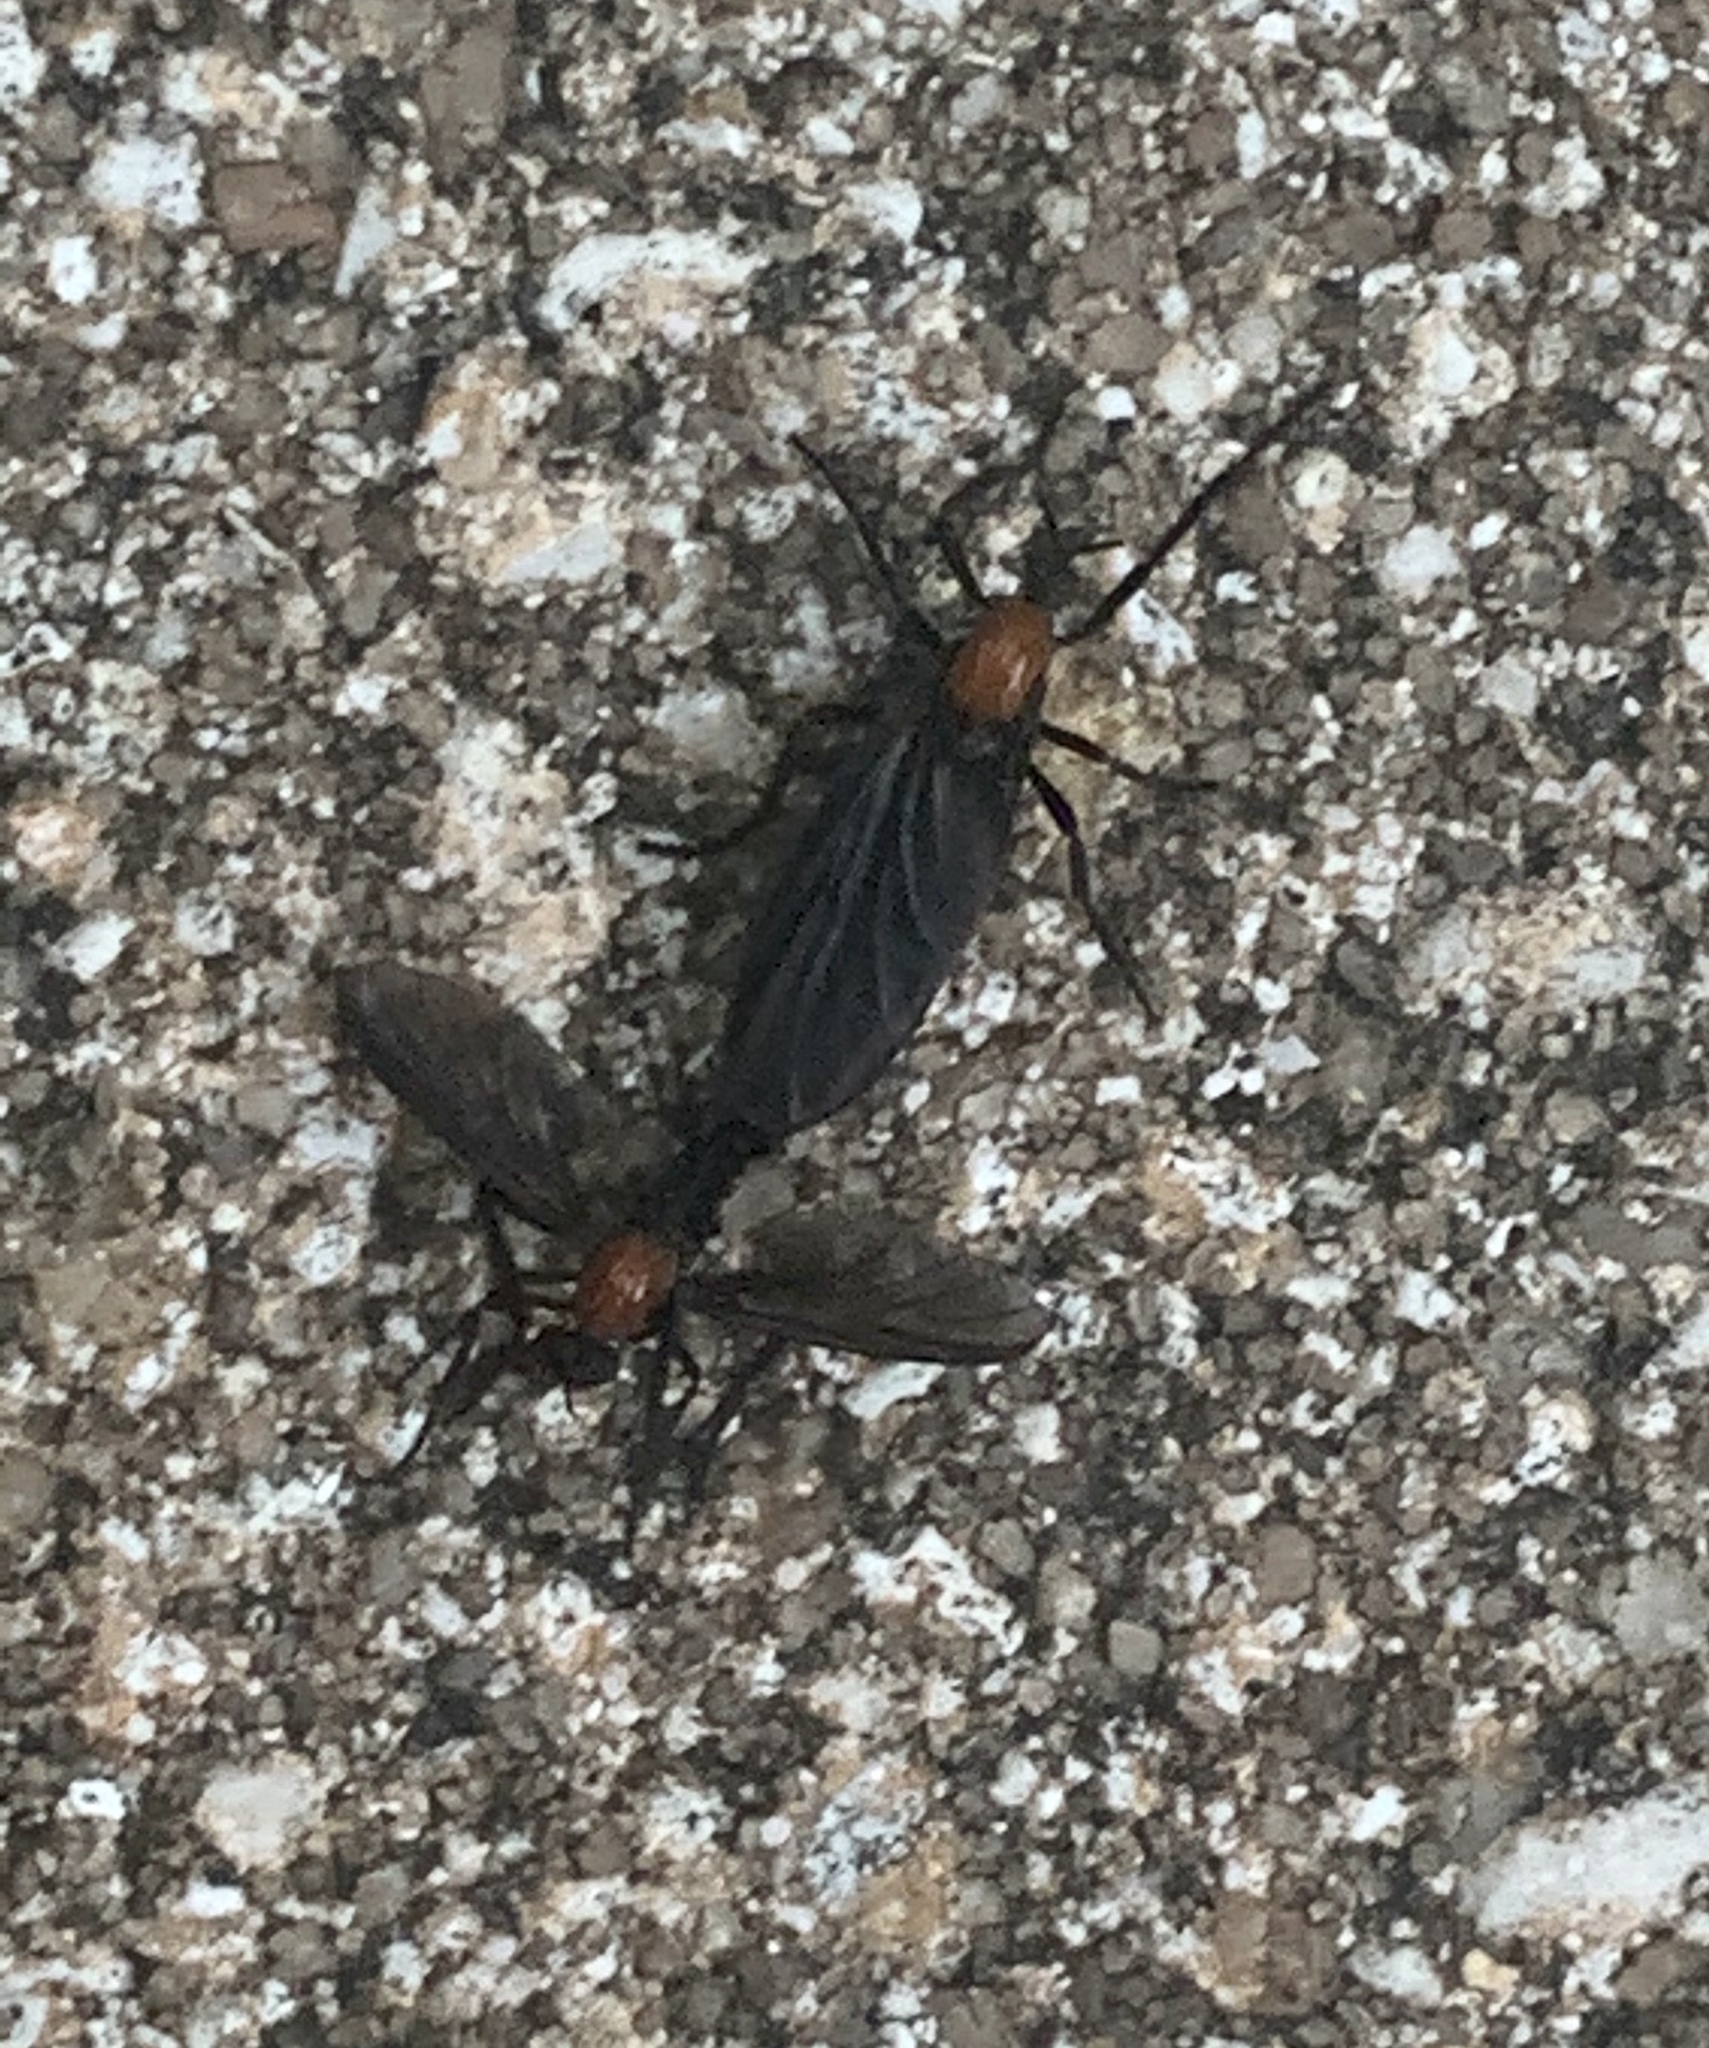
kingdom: Animalia
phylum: Arthropoda
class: Insecta
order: Diptera
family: Bibionidae
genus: Plecia
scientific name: Plecia nearctica
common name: March fly
